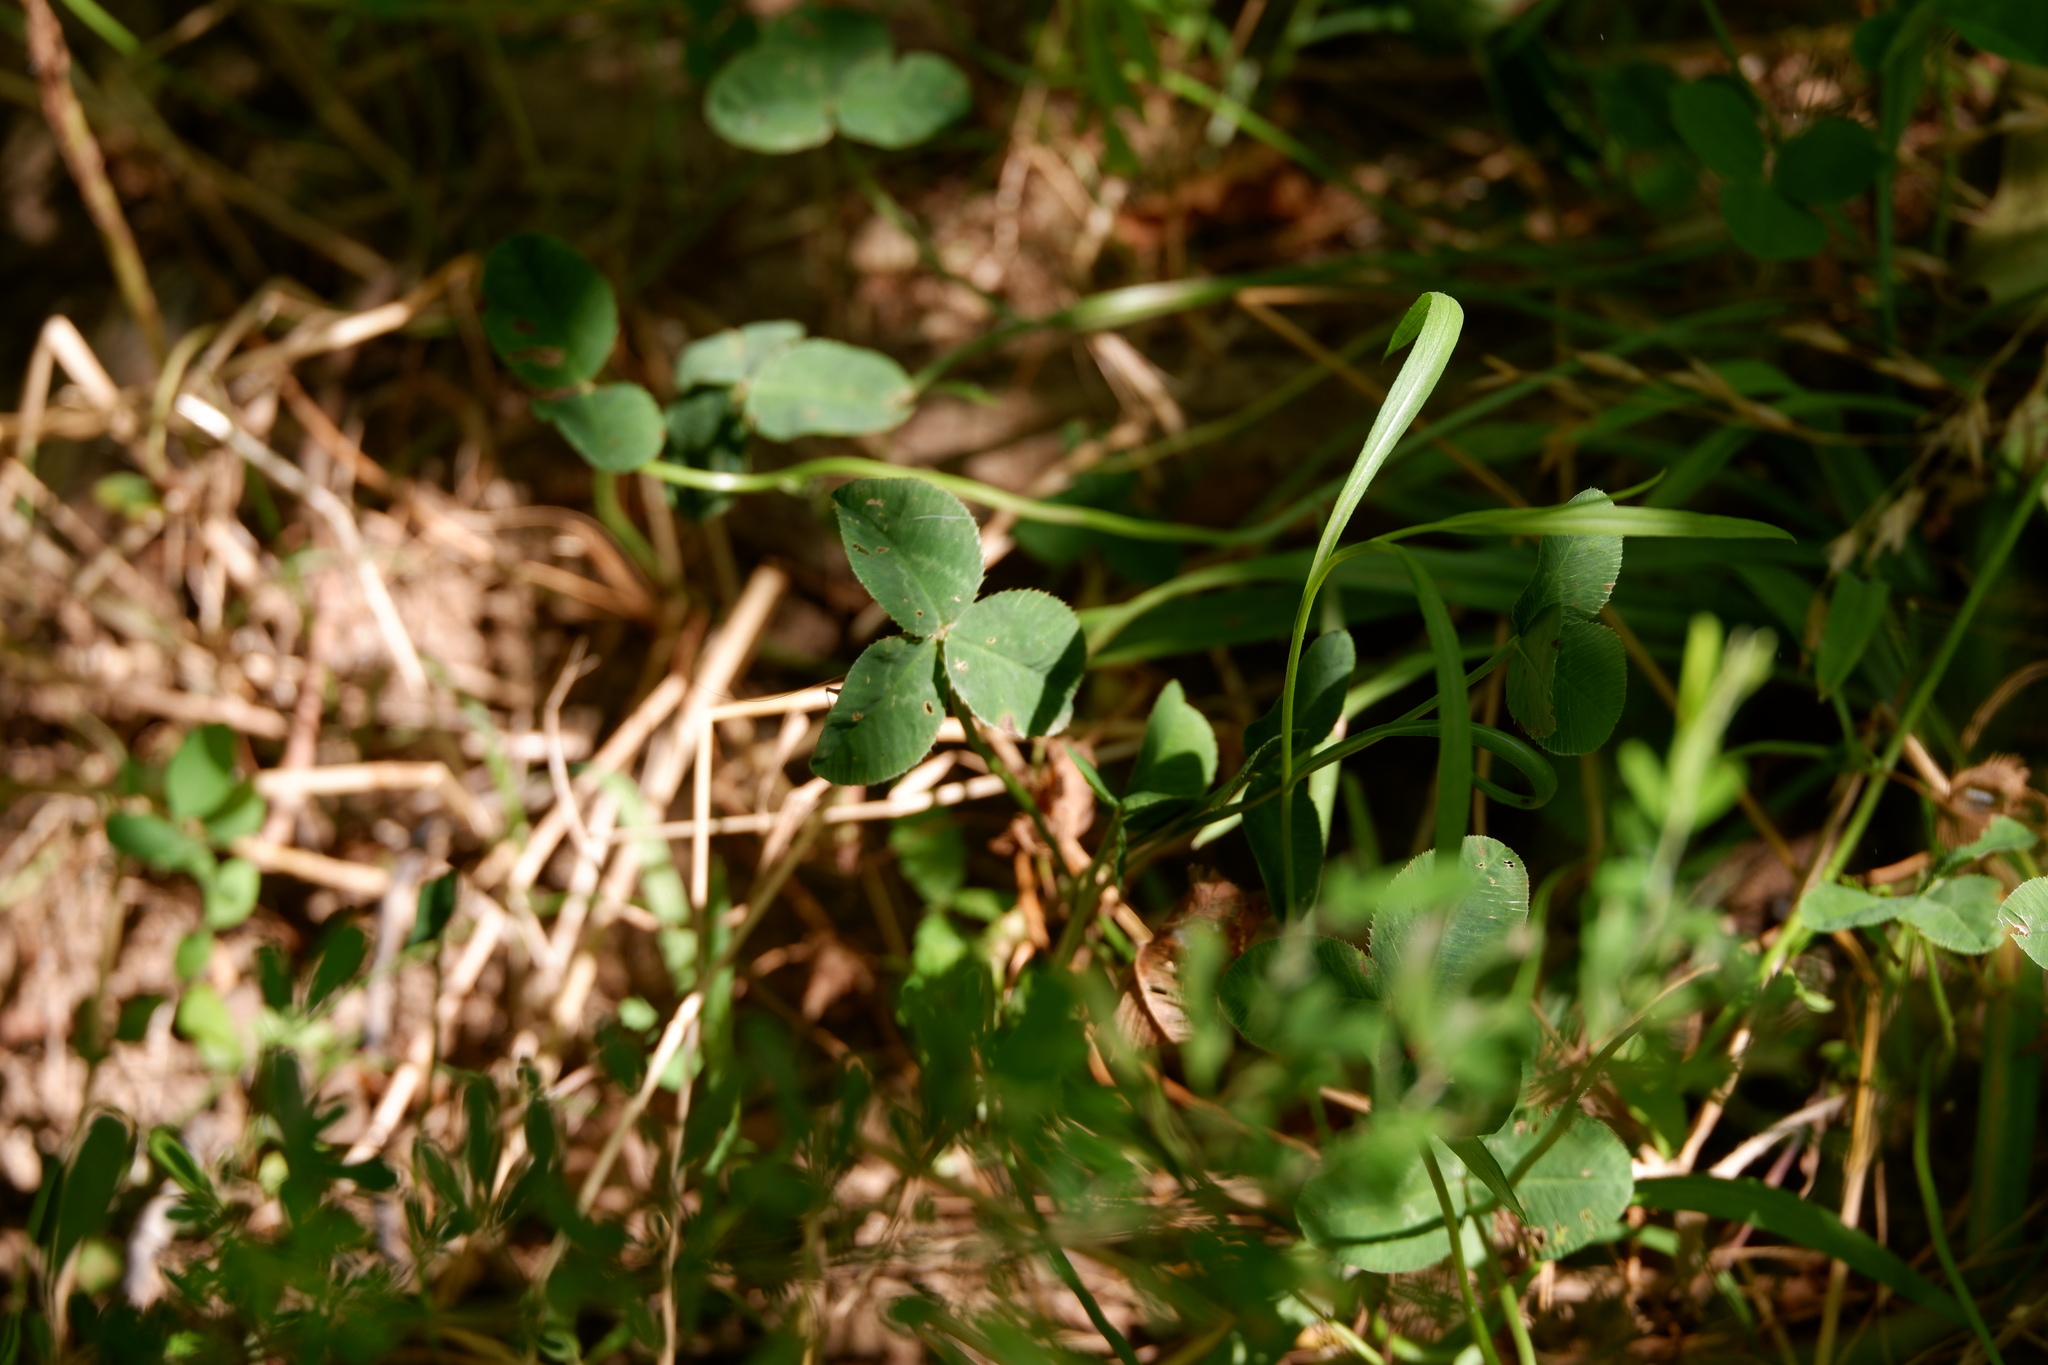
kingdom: Plantae
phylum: Tracheophyta
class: Magnoliopsida
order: Fabales
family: Fabaceae
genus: Trifolium
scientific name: Trifolium repens
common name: White clover
